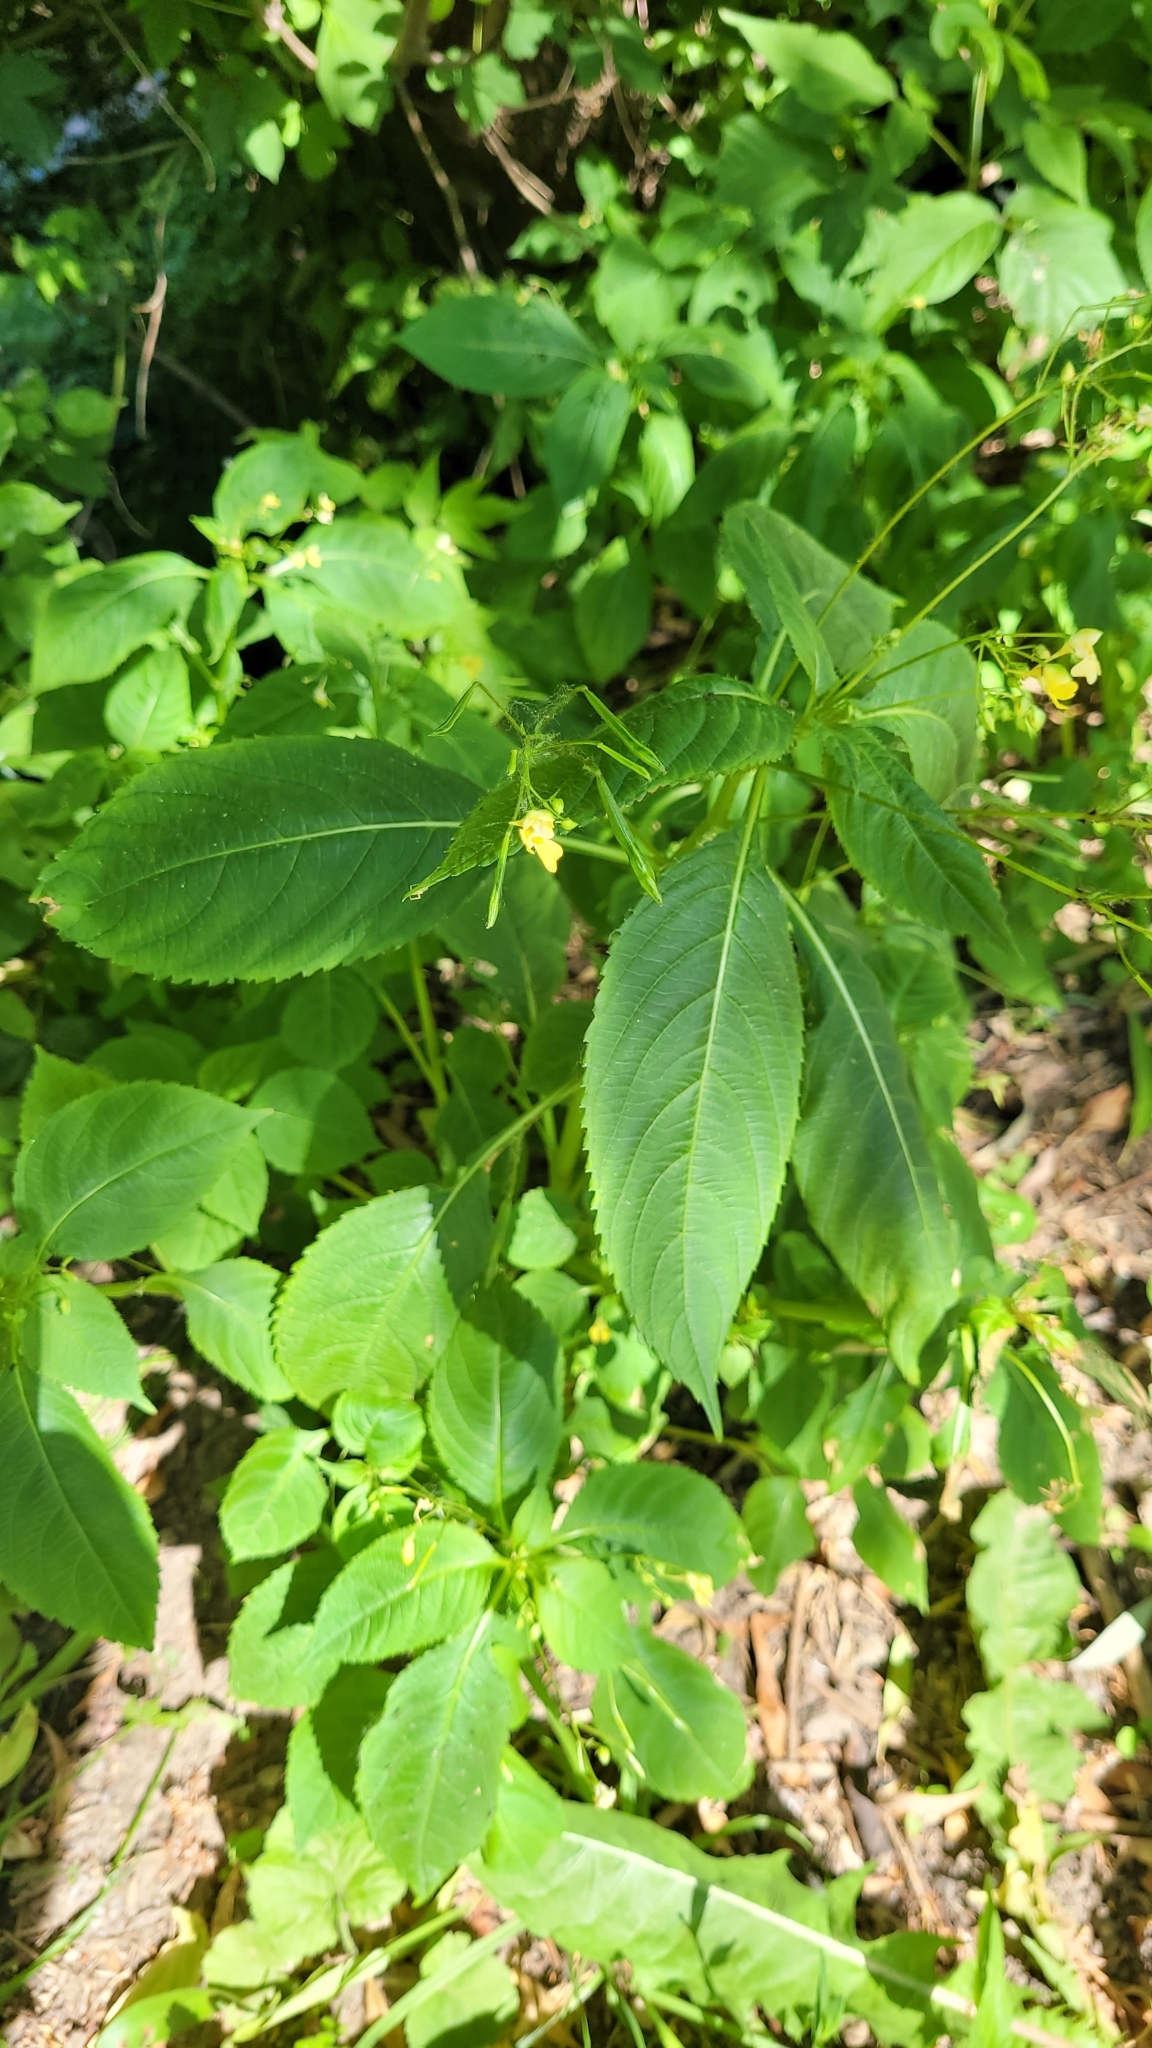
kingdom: Plantae
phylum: Tracheophyta
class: Magnoliopsida
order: Ericales
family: Balsaminaceae
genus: Impatiens
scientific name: Impatiens noli-tangere
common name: Touch-me-not balsam
